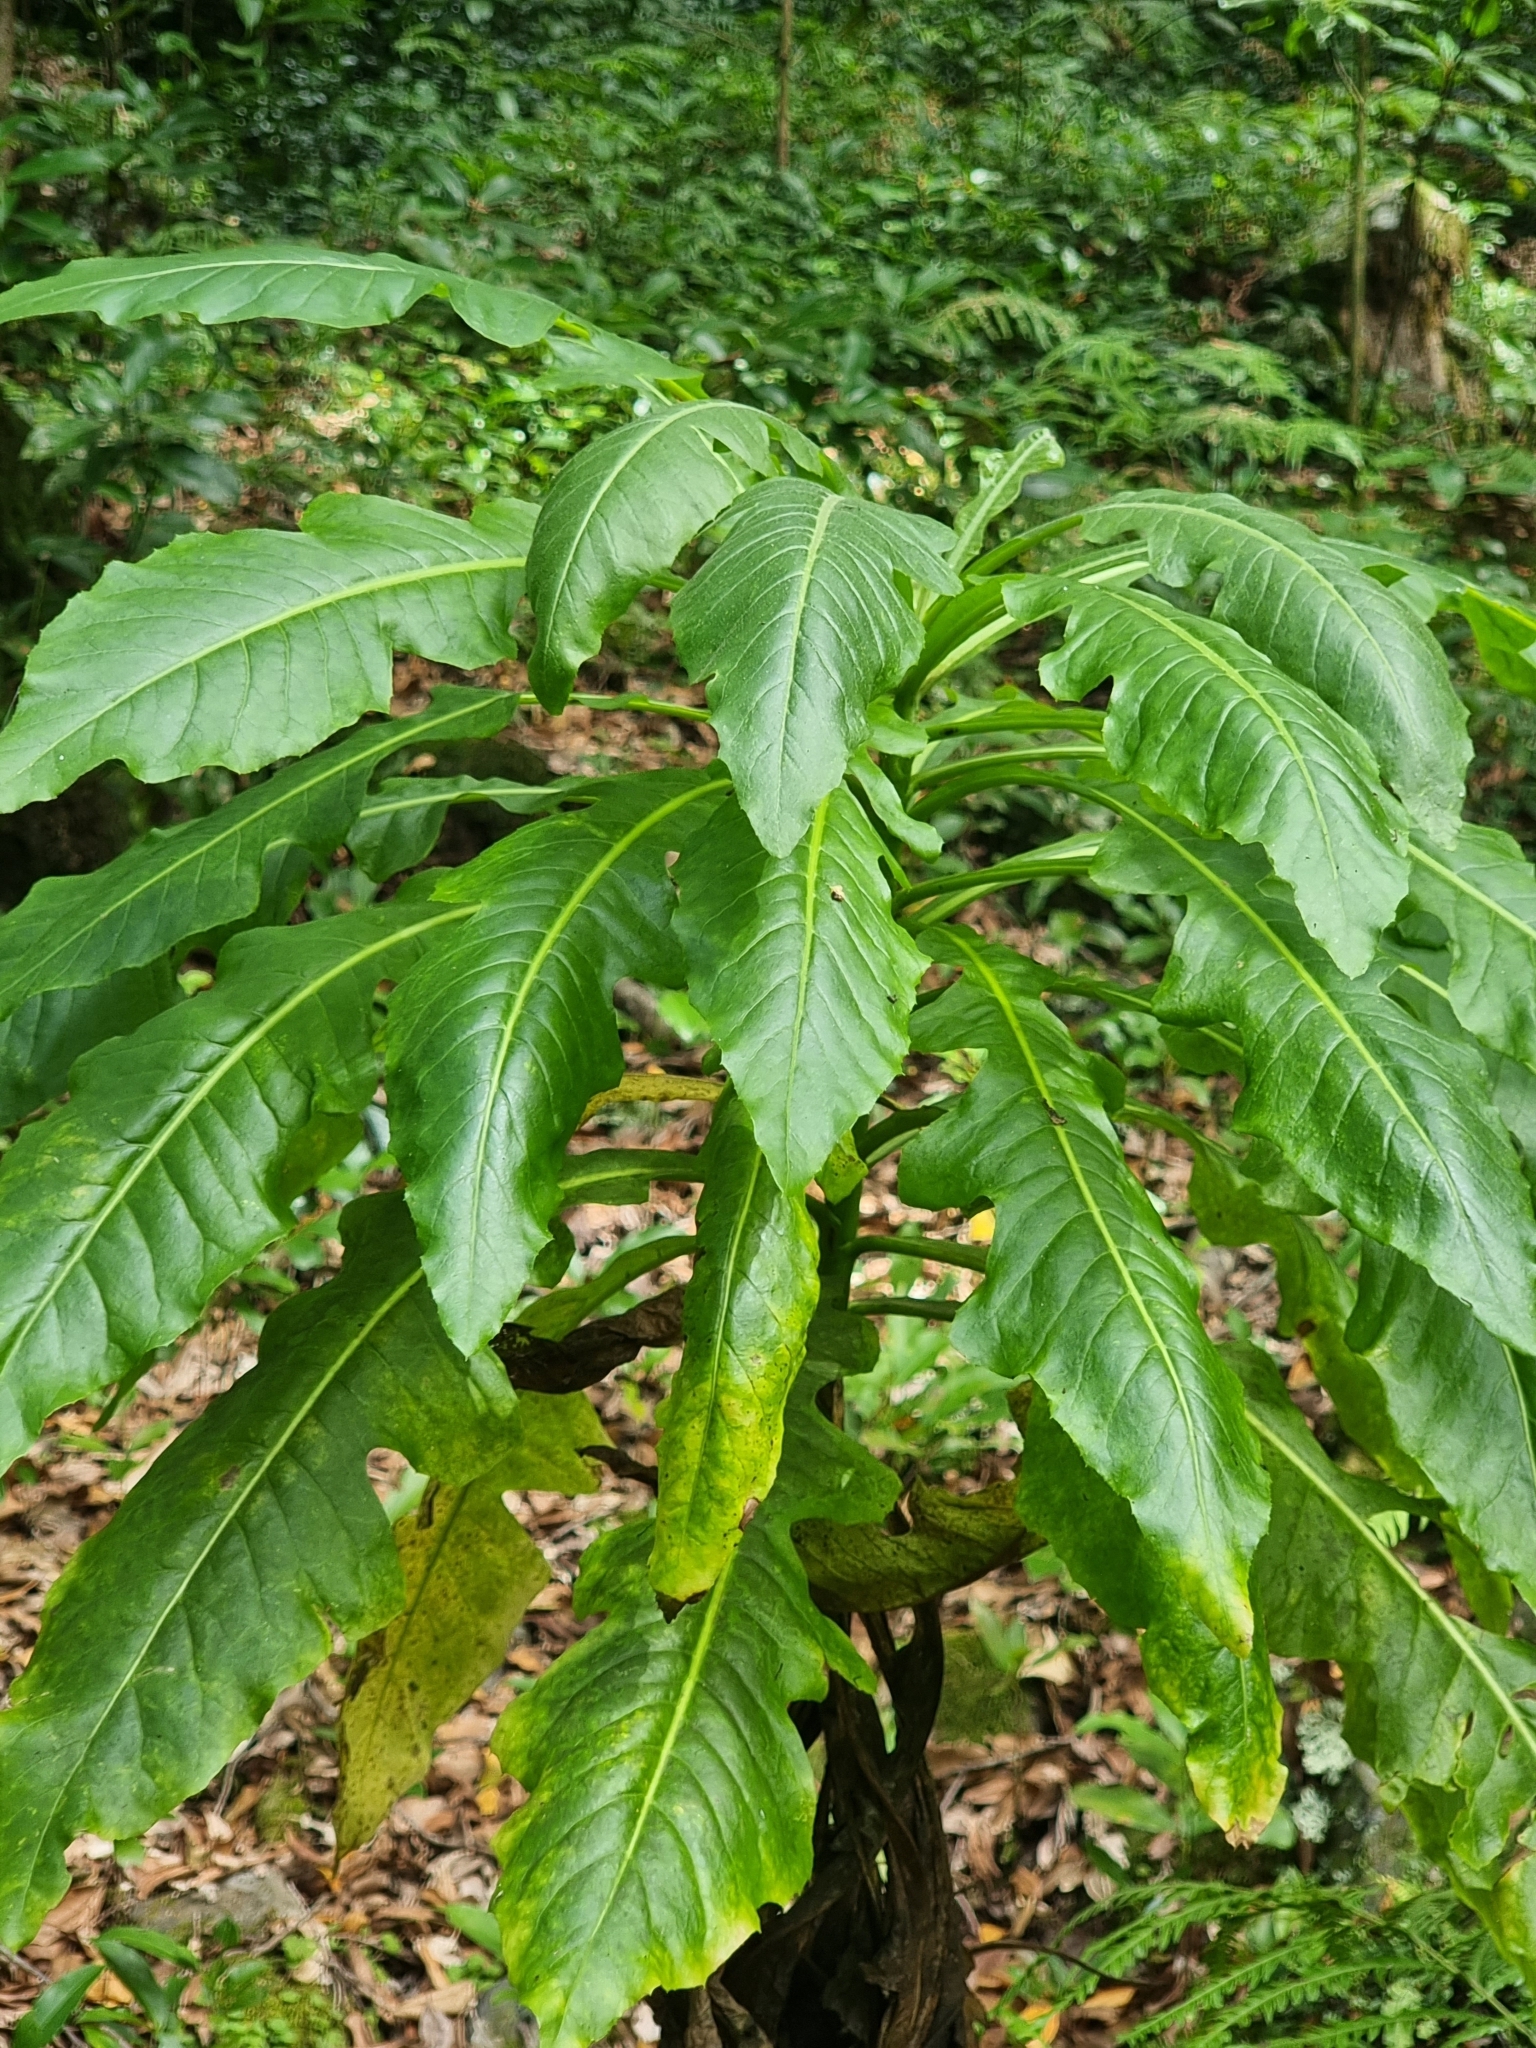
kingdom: Plantae
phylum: Tracheophyta
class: Magnoliopsida
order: Asterales
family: Asteraceae
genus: Sonchus
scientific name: Sonchus fruticosus
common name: Shrubby sow-thistle
